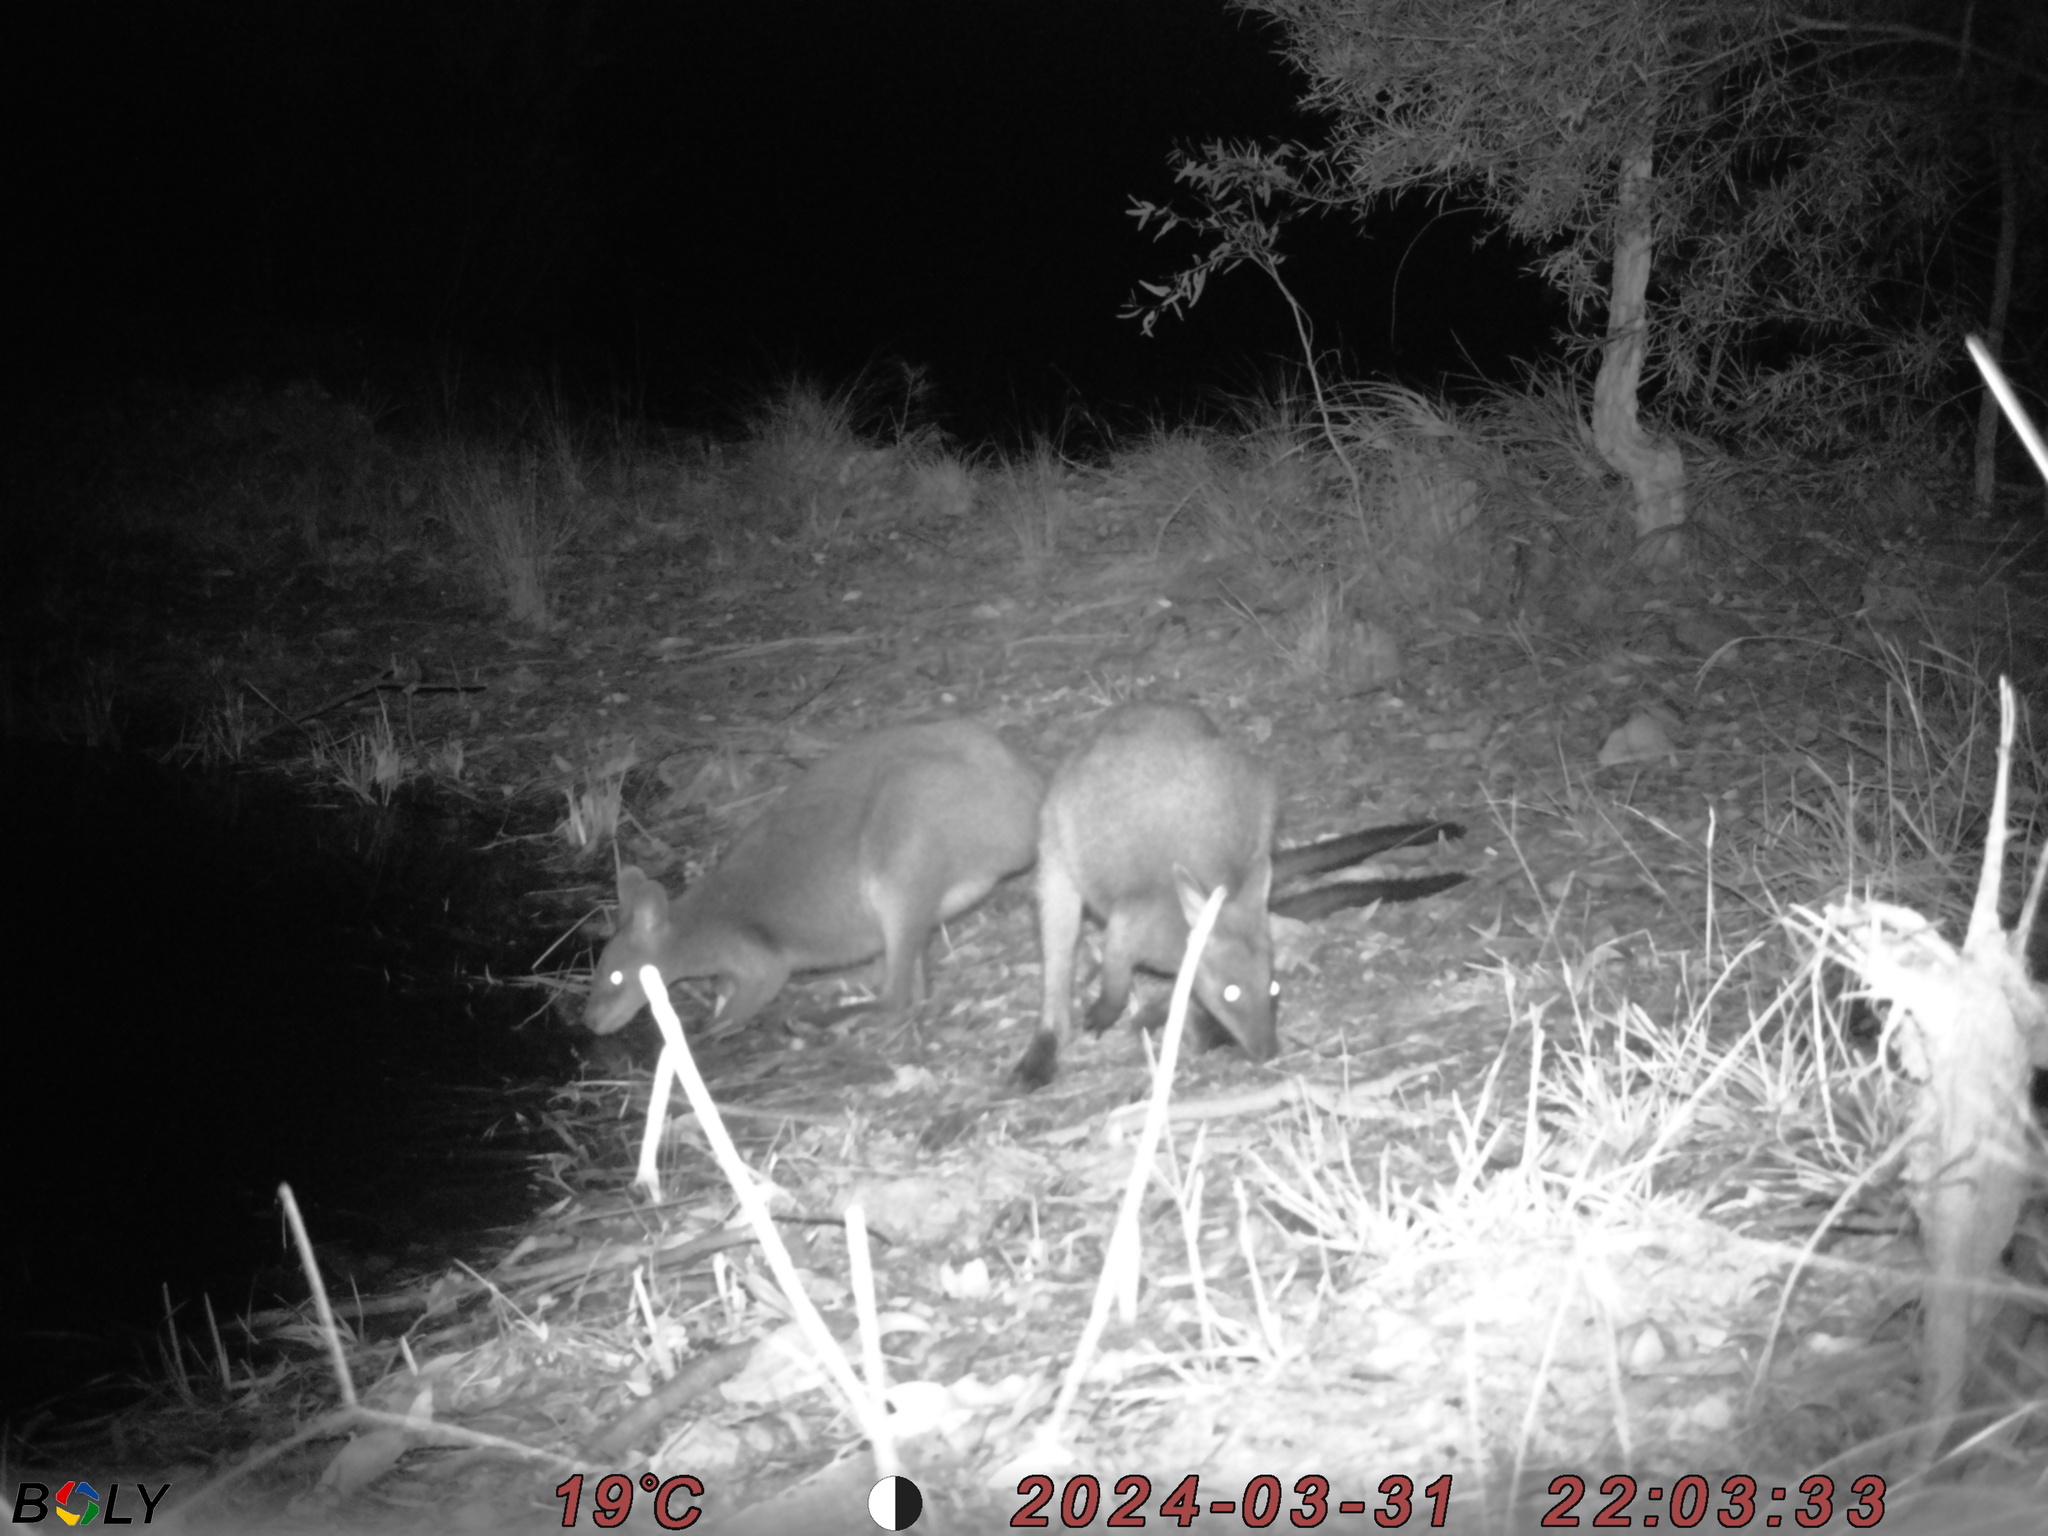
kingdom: Animalia
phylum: Chordata
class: Mammalia
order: Diprotodontia
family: Macropodidae
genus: Wallabia
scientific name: Wallabia bicolor
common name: Swamp wallaby
